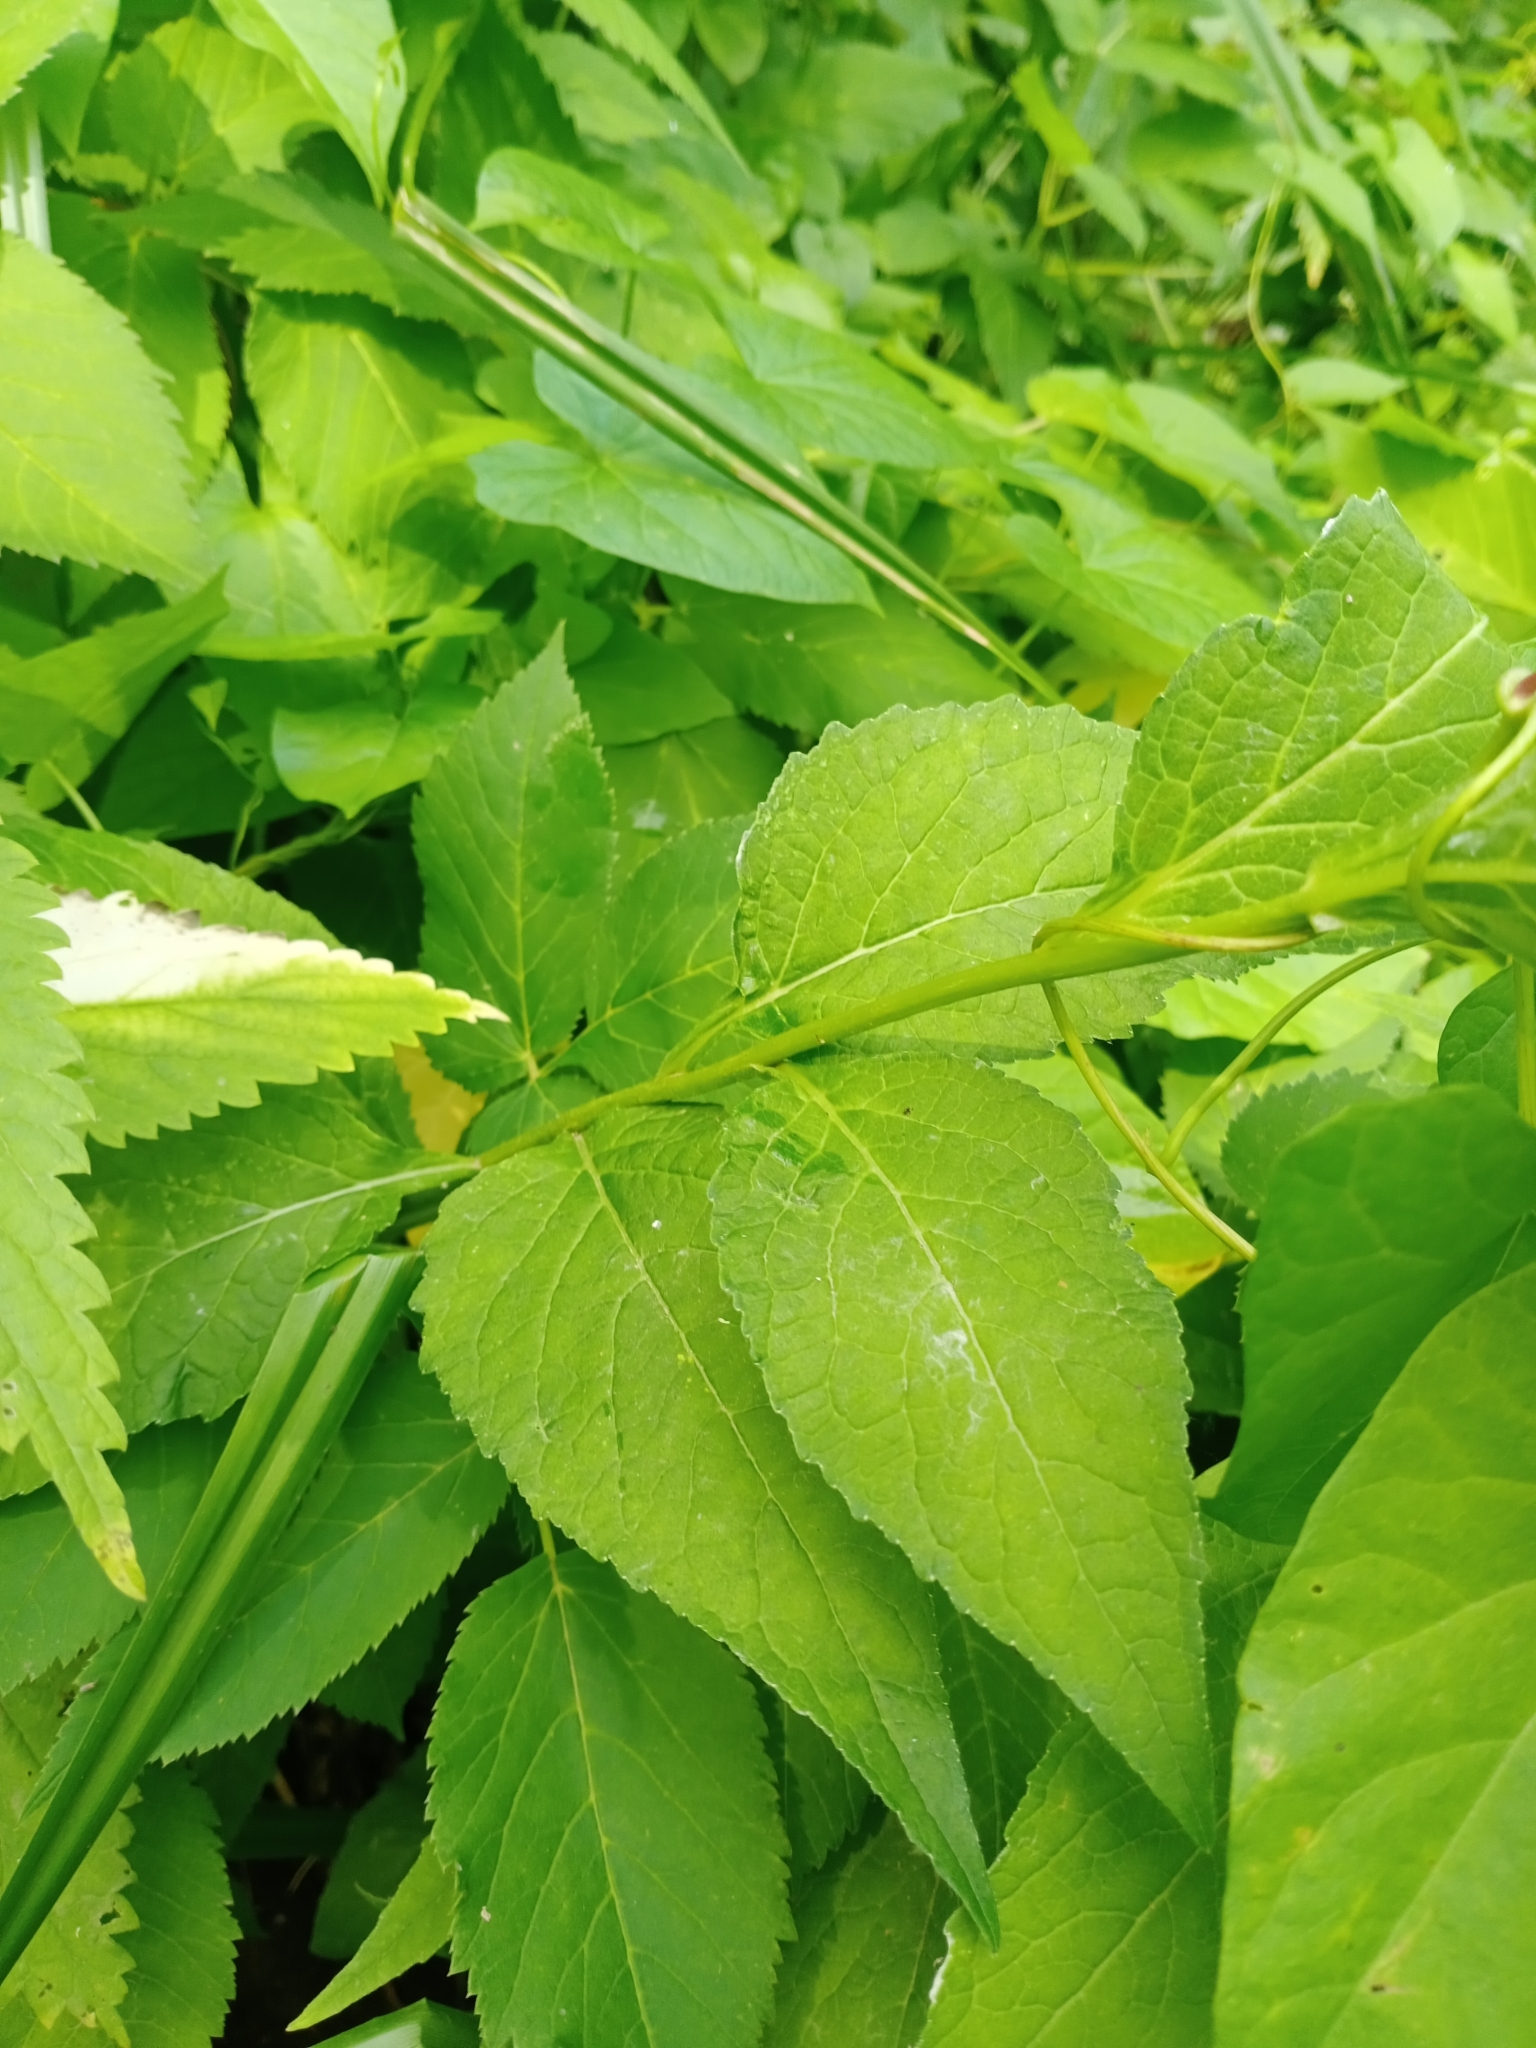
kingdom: Plantae
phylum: Tracheophyta
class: Magnoliopsida
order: Asterales
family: Campanulaceae
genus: Campanula
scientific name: Campanula latifolia
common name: Giant bellflower
